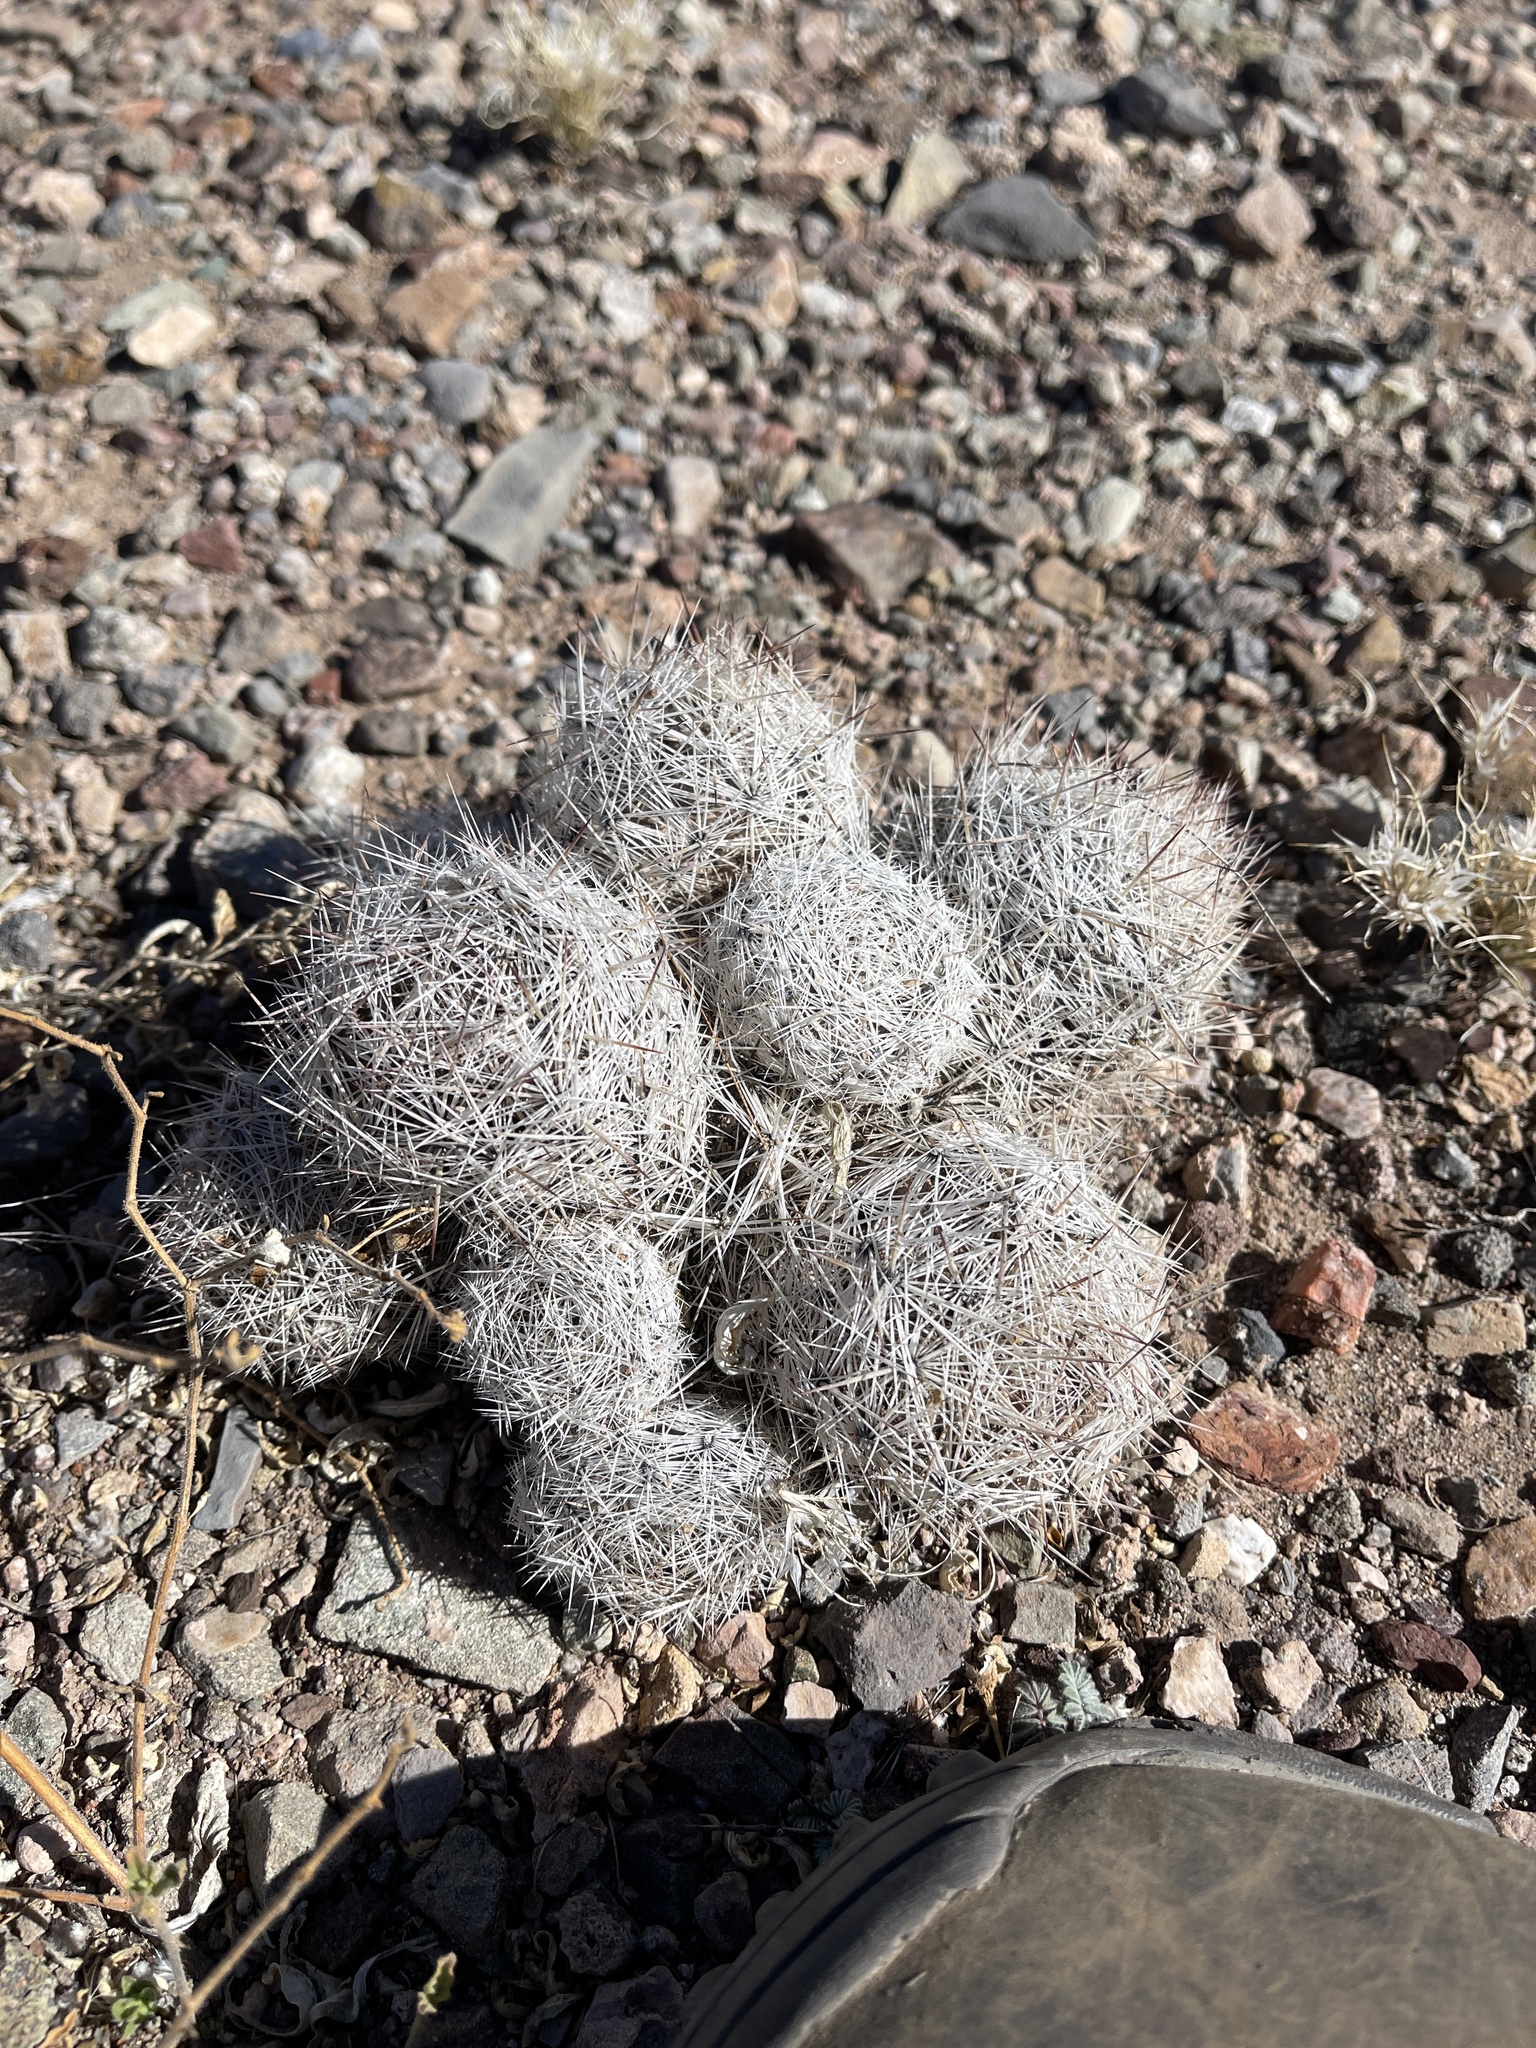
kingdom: Plantae
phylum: Tracheophyta
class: Magnoliopsida
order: Caryophyllales
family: Cactaceae
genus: Pelecyphora
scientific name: Pelecyphora vivipara
